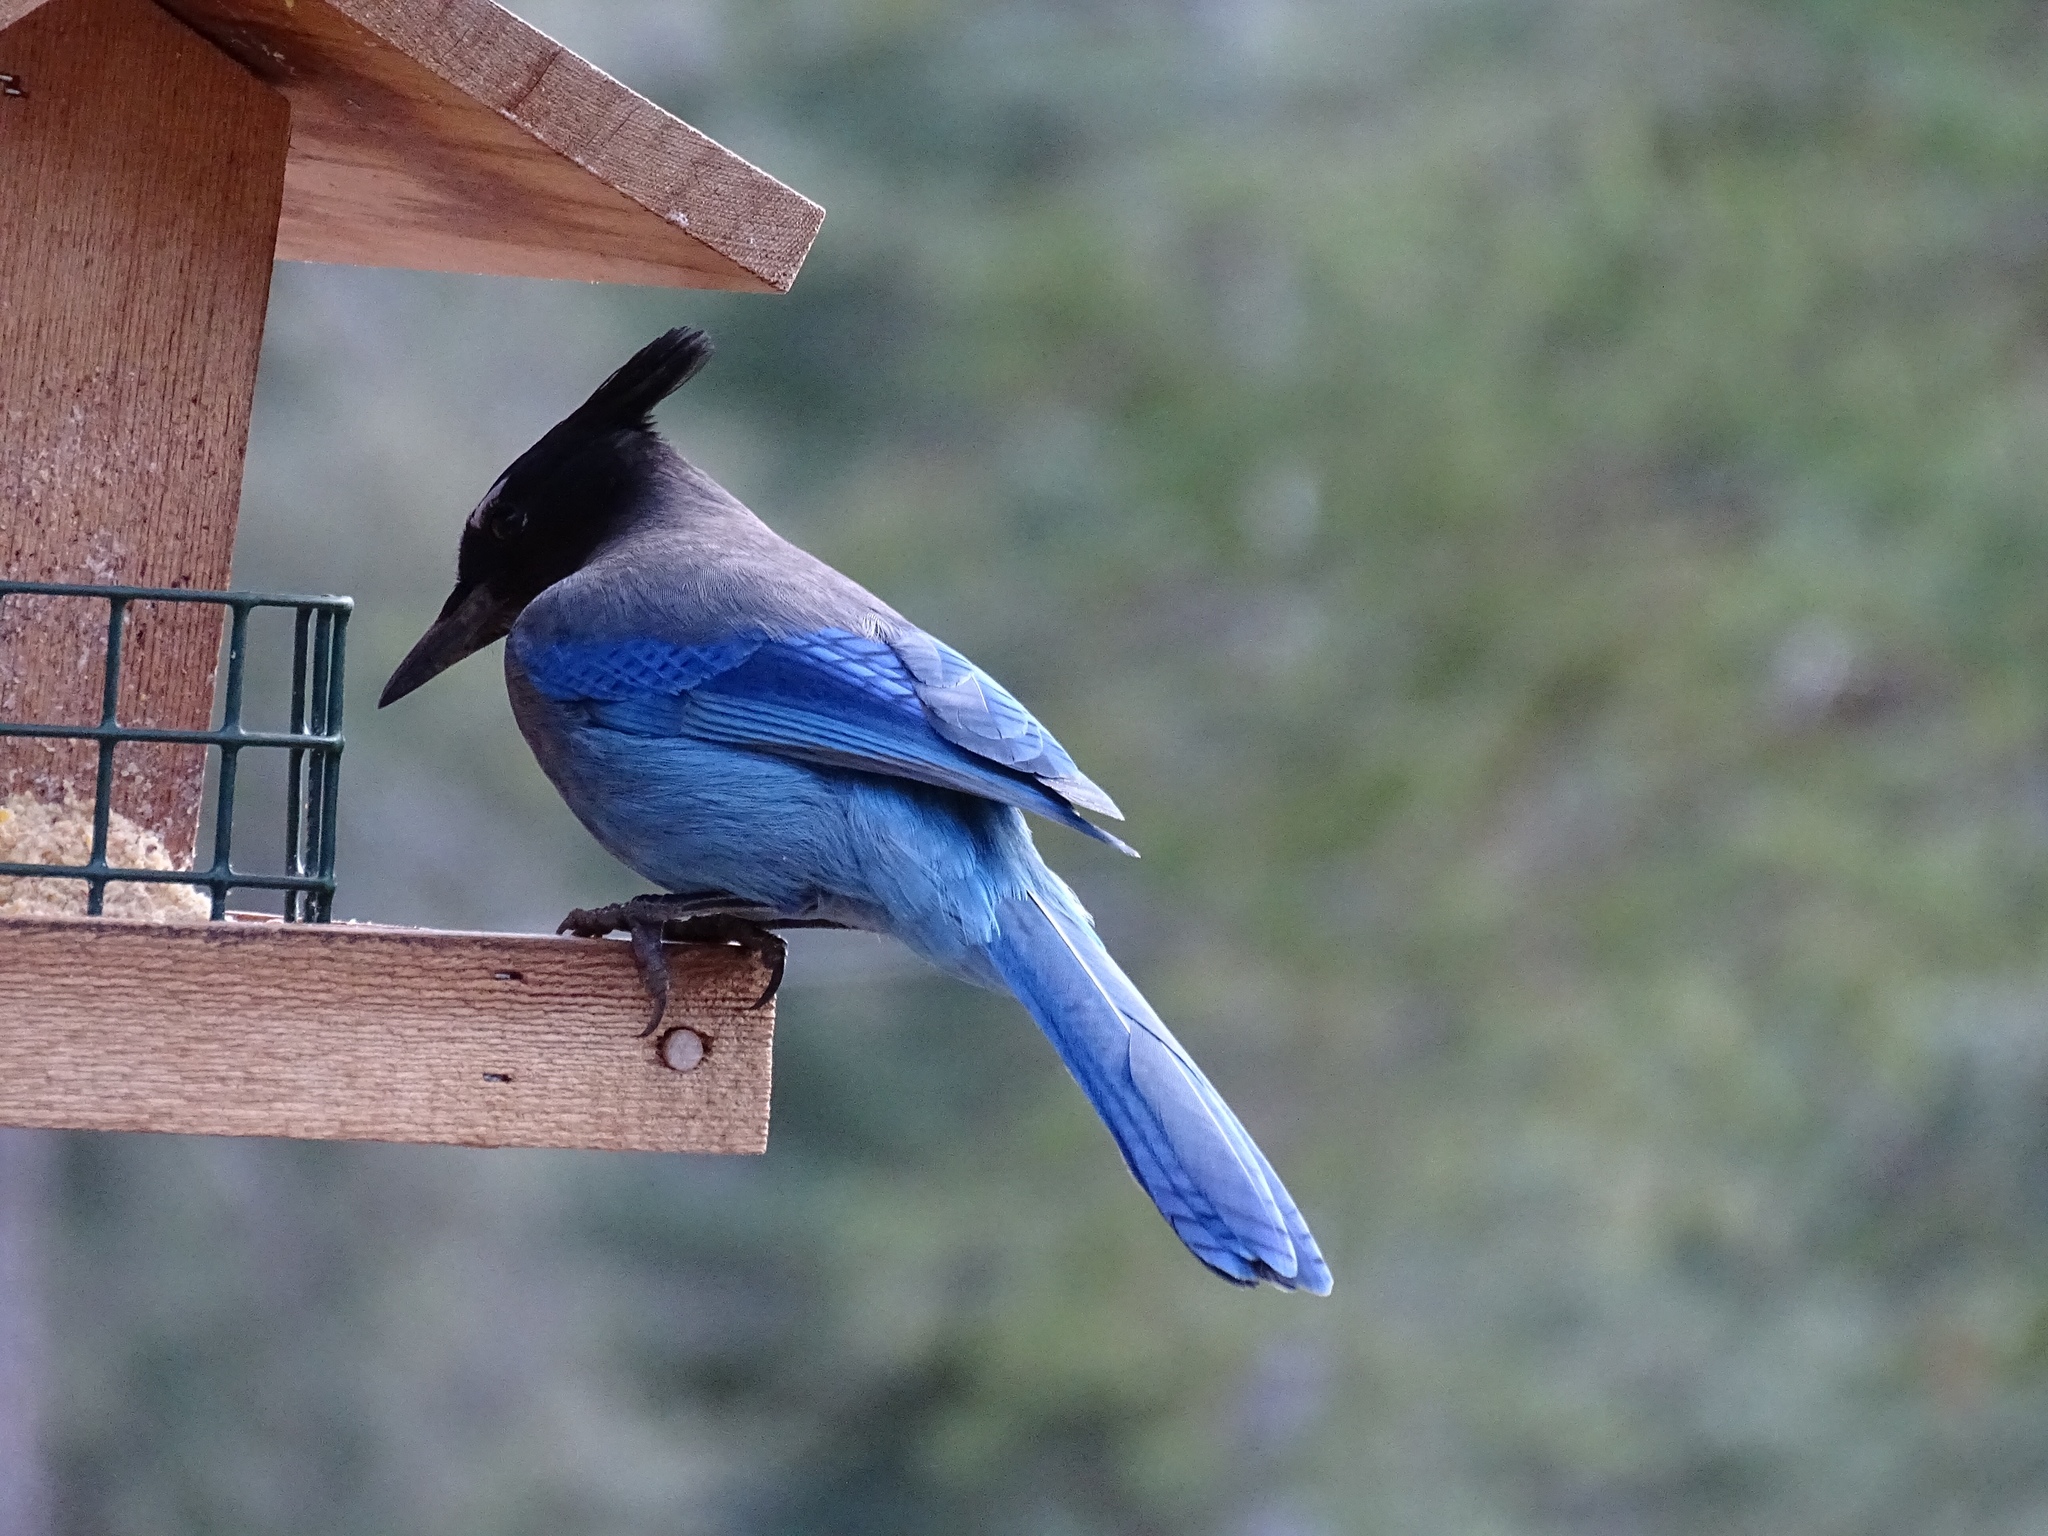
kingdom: Animalia
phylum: Chordata
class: Aves
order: Passeriformes
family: Corvidae
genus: Cyanocitta
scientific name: Cyanocitta stelleri
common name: Steller's jay
